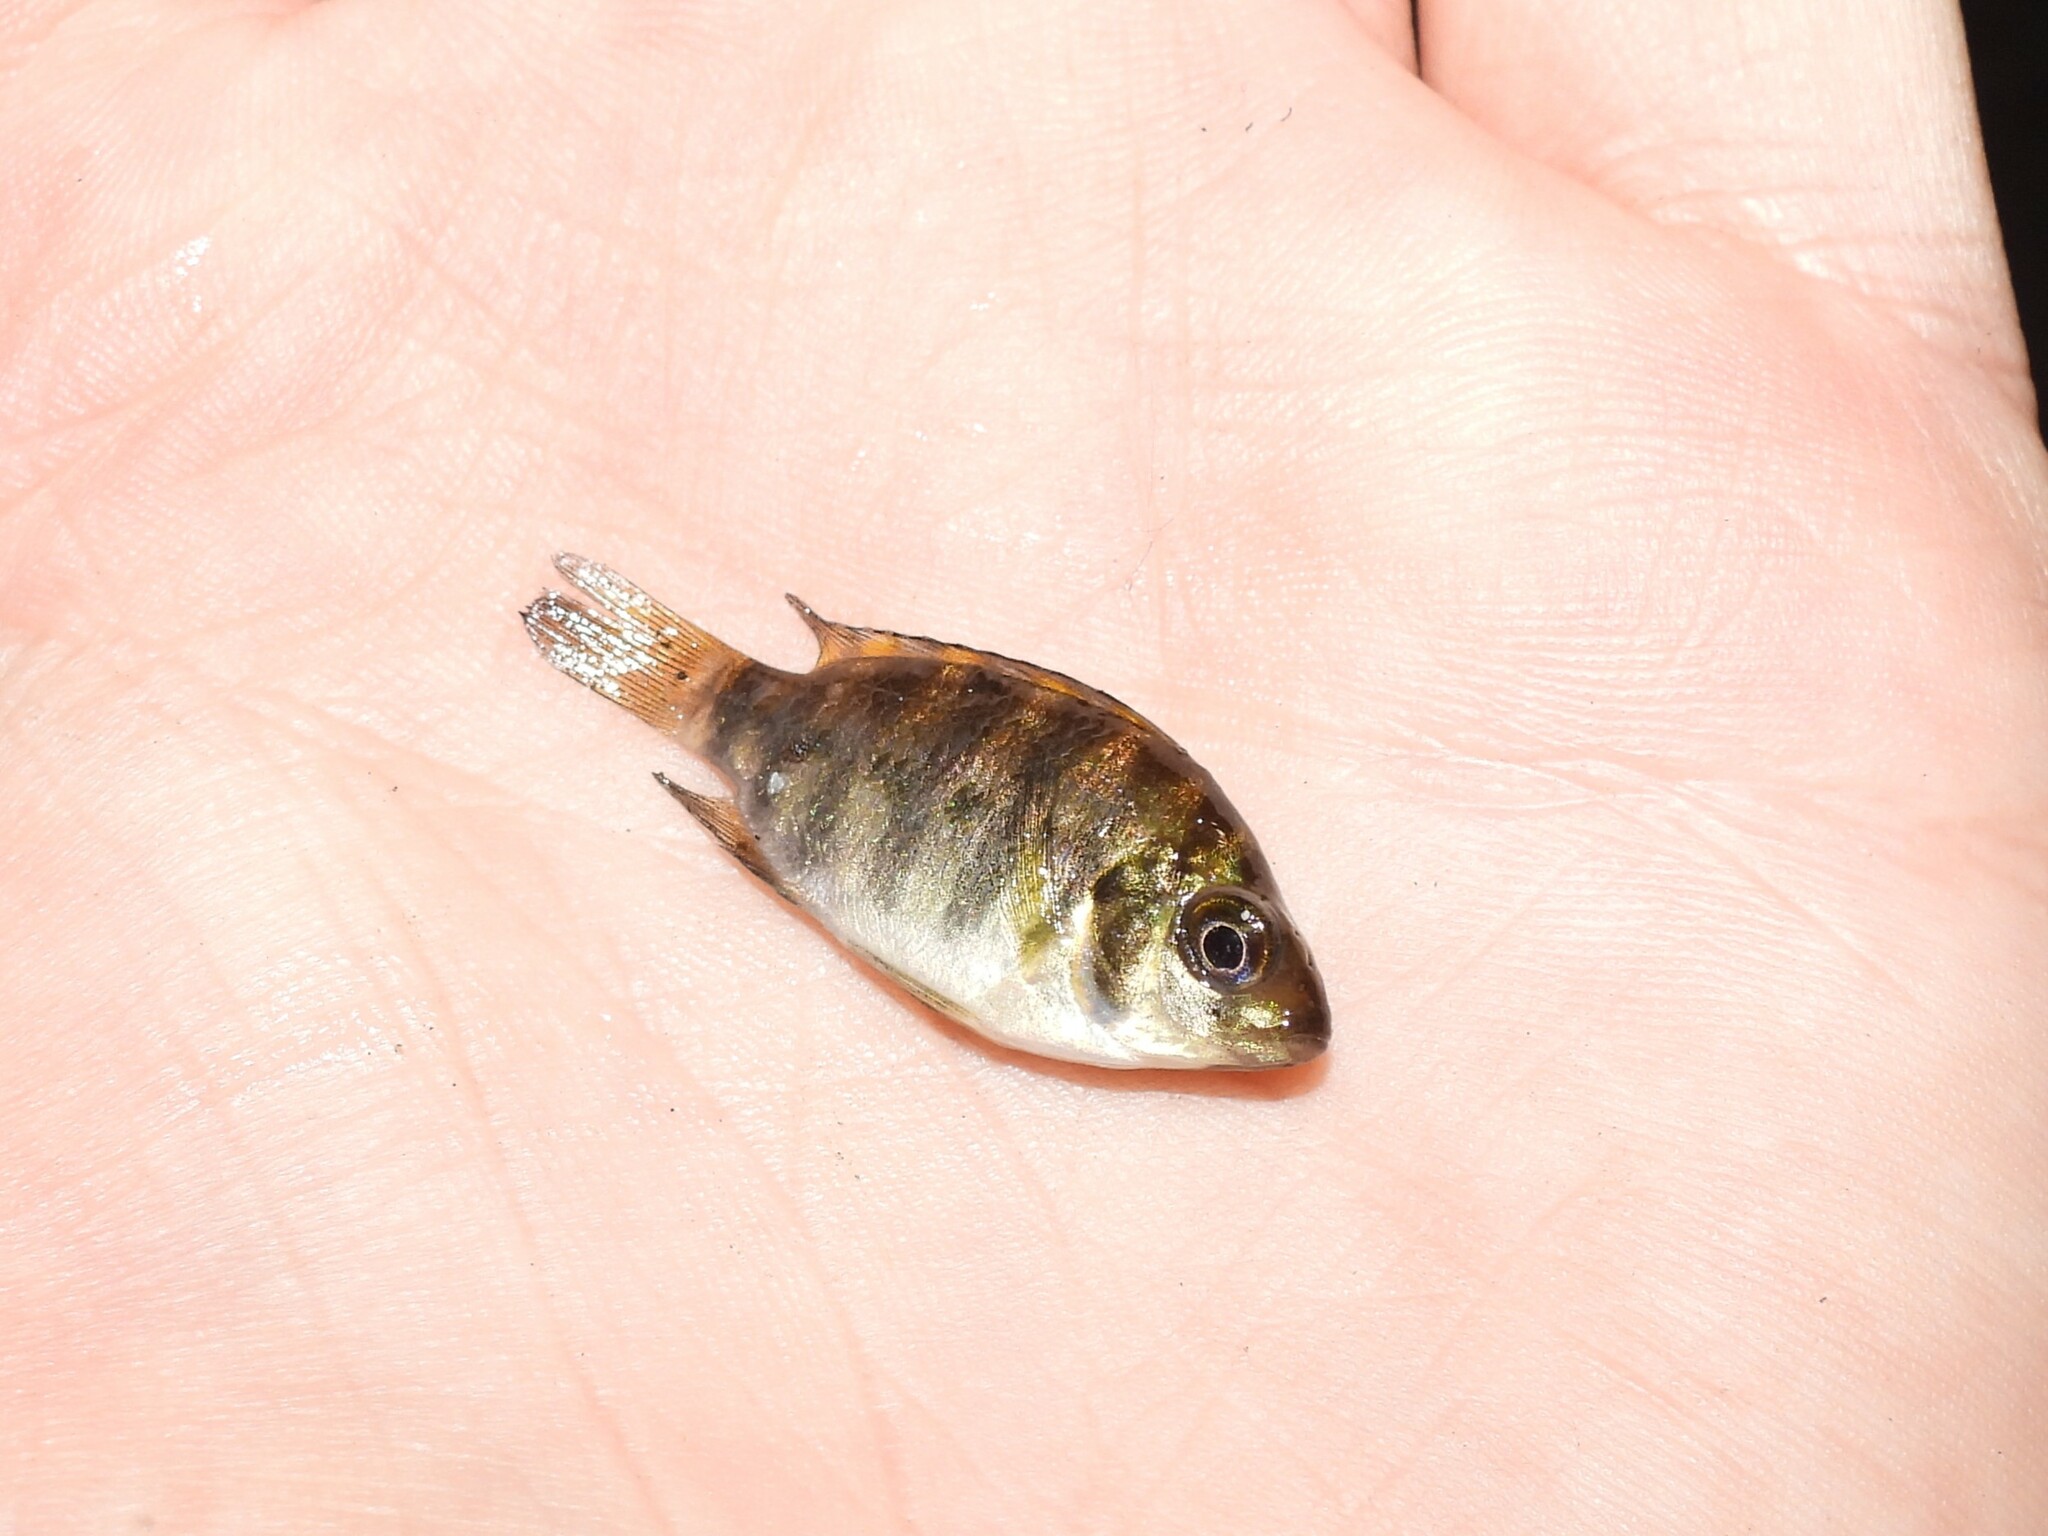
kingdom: Animalia
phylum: Chordata
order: Perciformes
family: Cichlidae
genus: Pelmatolapia
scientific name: Pelmatolapia mariae
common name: Spotted tilapia
